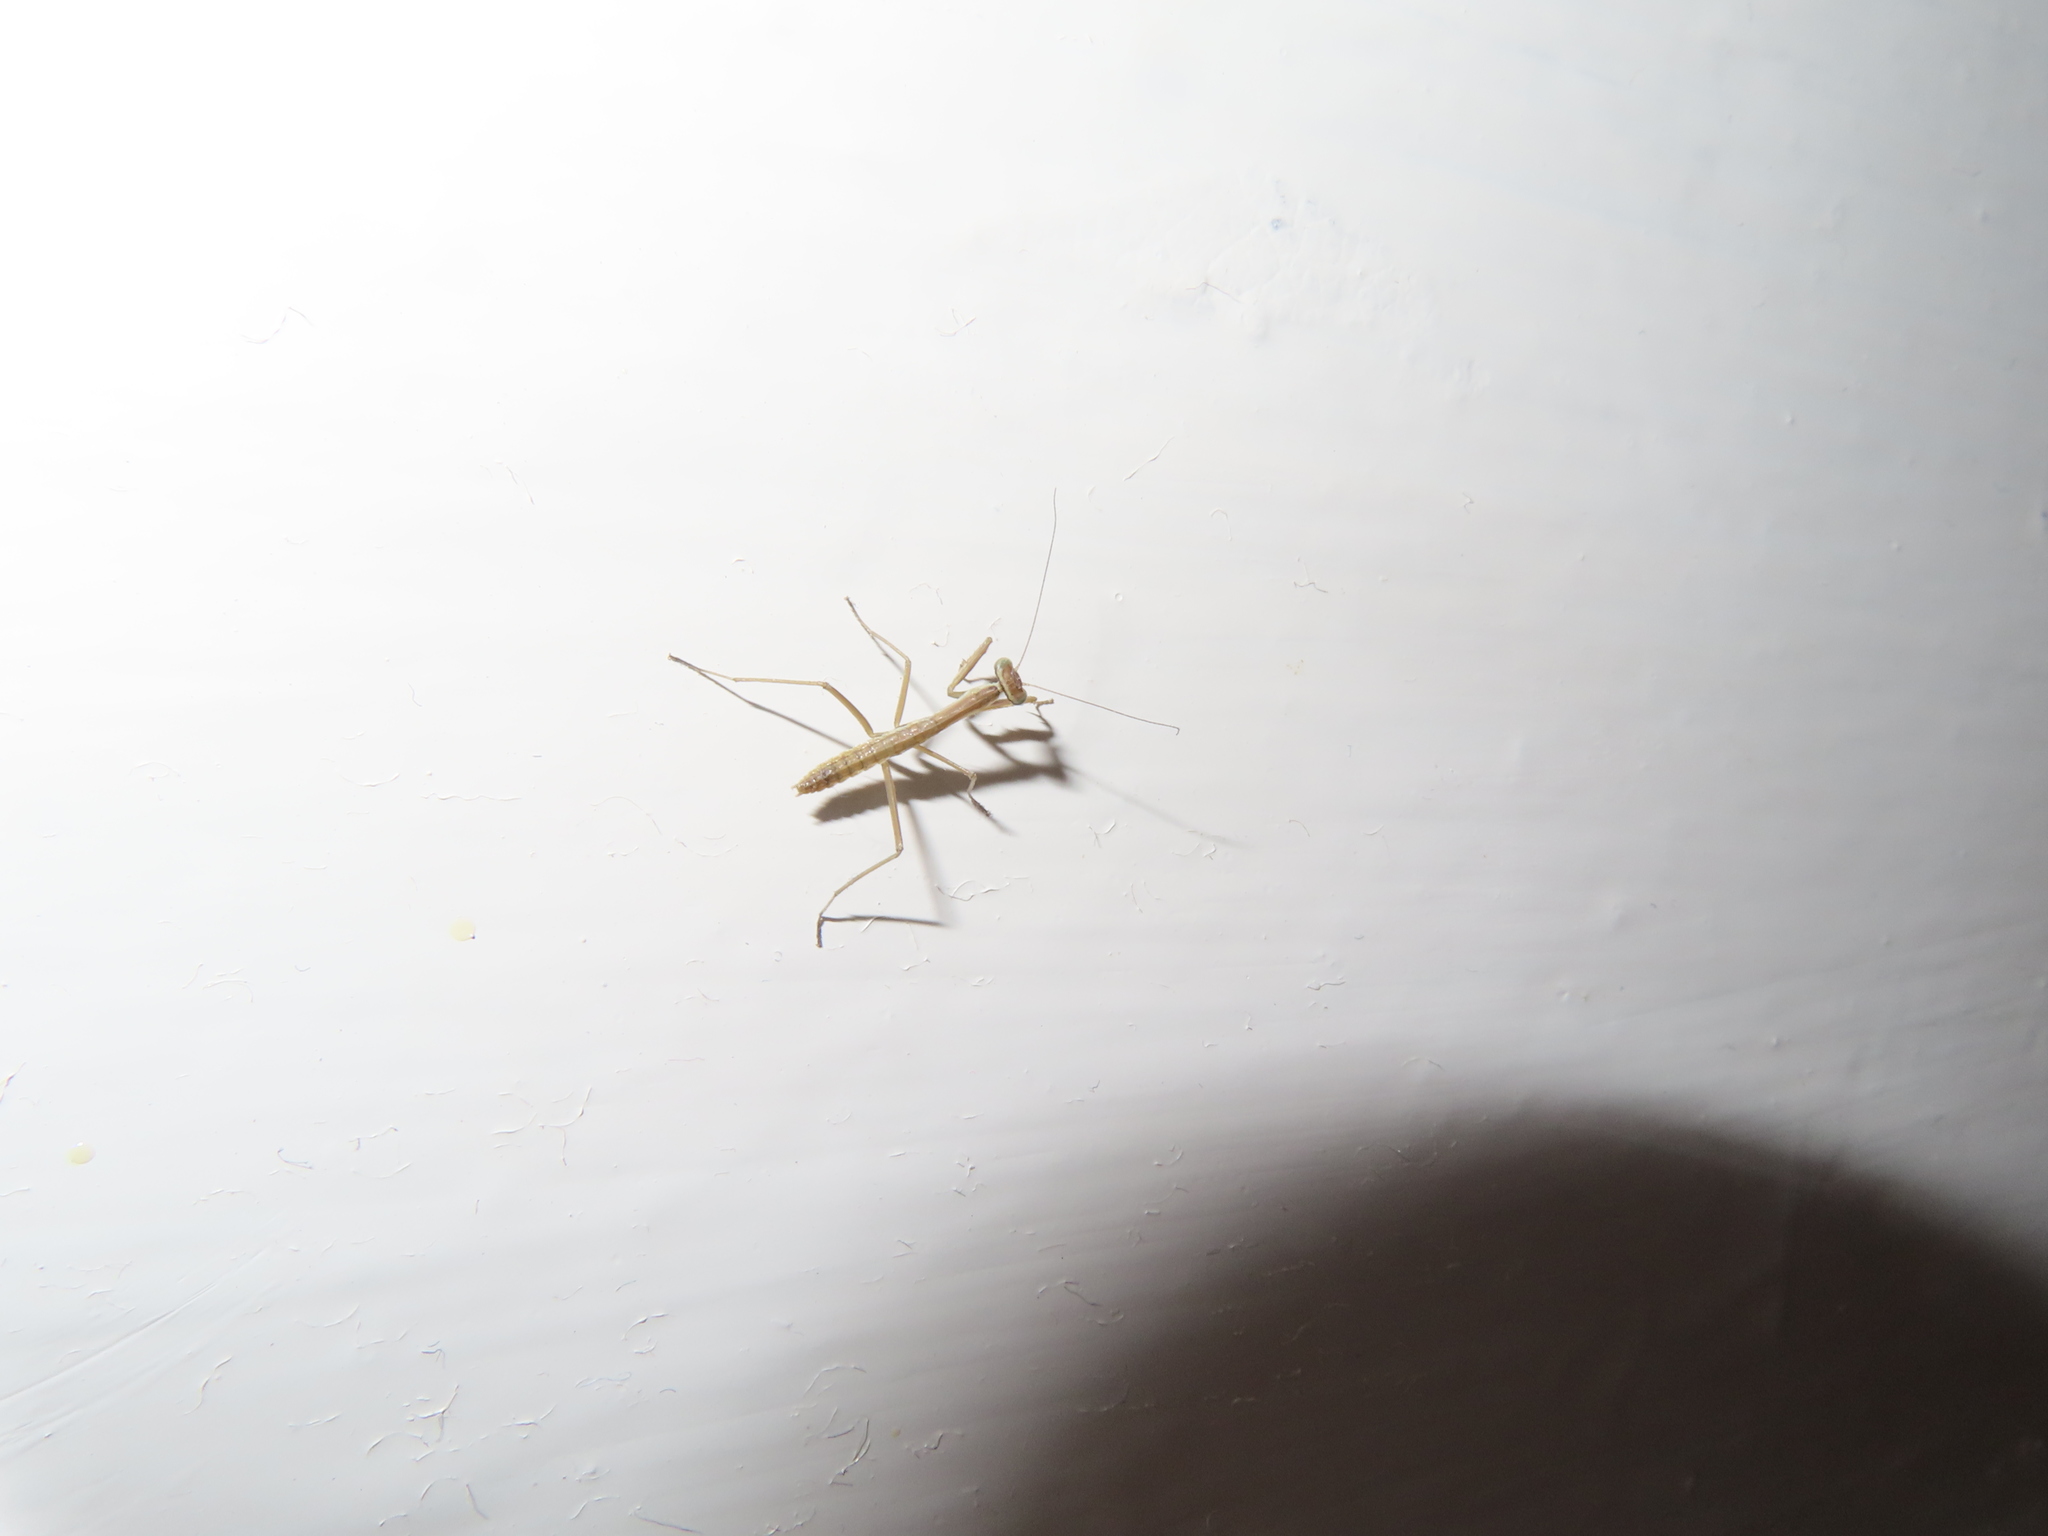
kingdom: Animalia
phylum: Arthropoda
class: Insecta
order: Mantodea
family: Mantidae
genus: Tenodera
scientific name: Tenodera sinensis
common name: Chinese mantis
